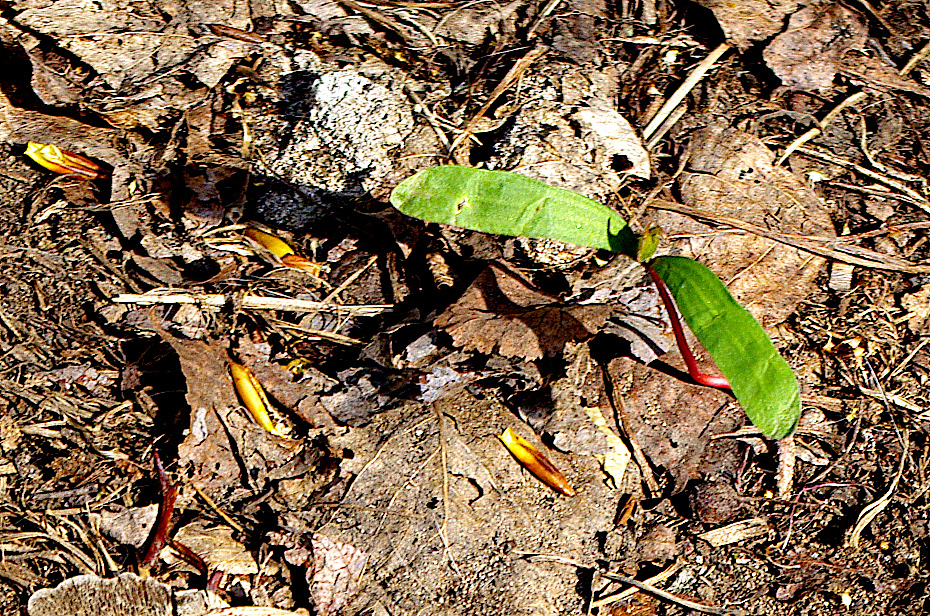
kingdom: Plantae
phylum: Tracheophyta
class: Magnoliopsida
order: Sapindales
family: Sapindaceae
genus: Acer
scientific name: Acer platanoides
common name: Norway maple
